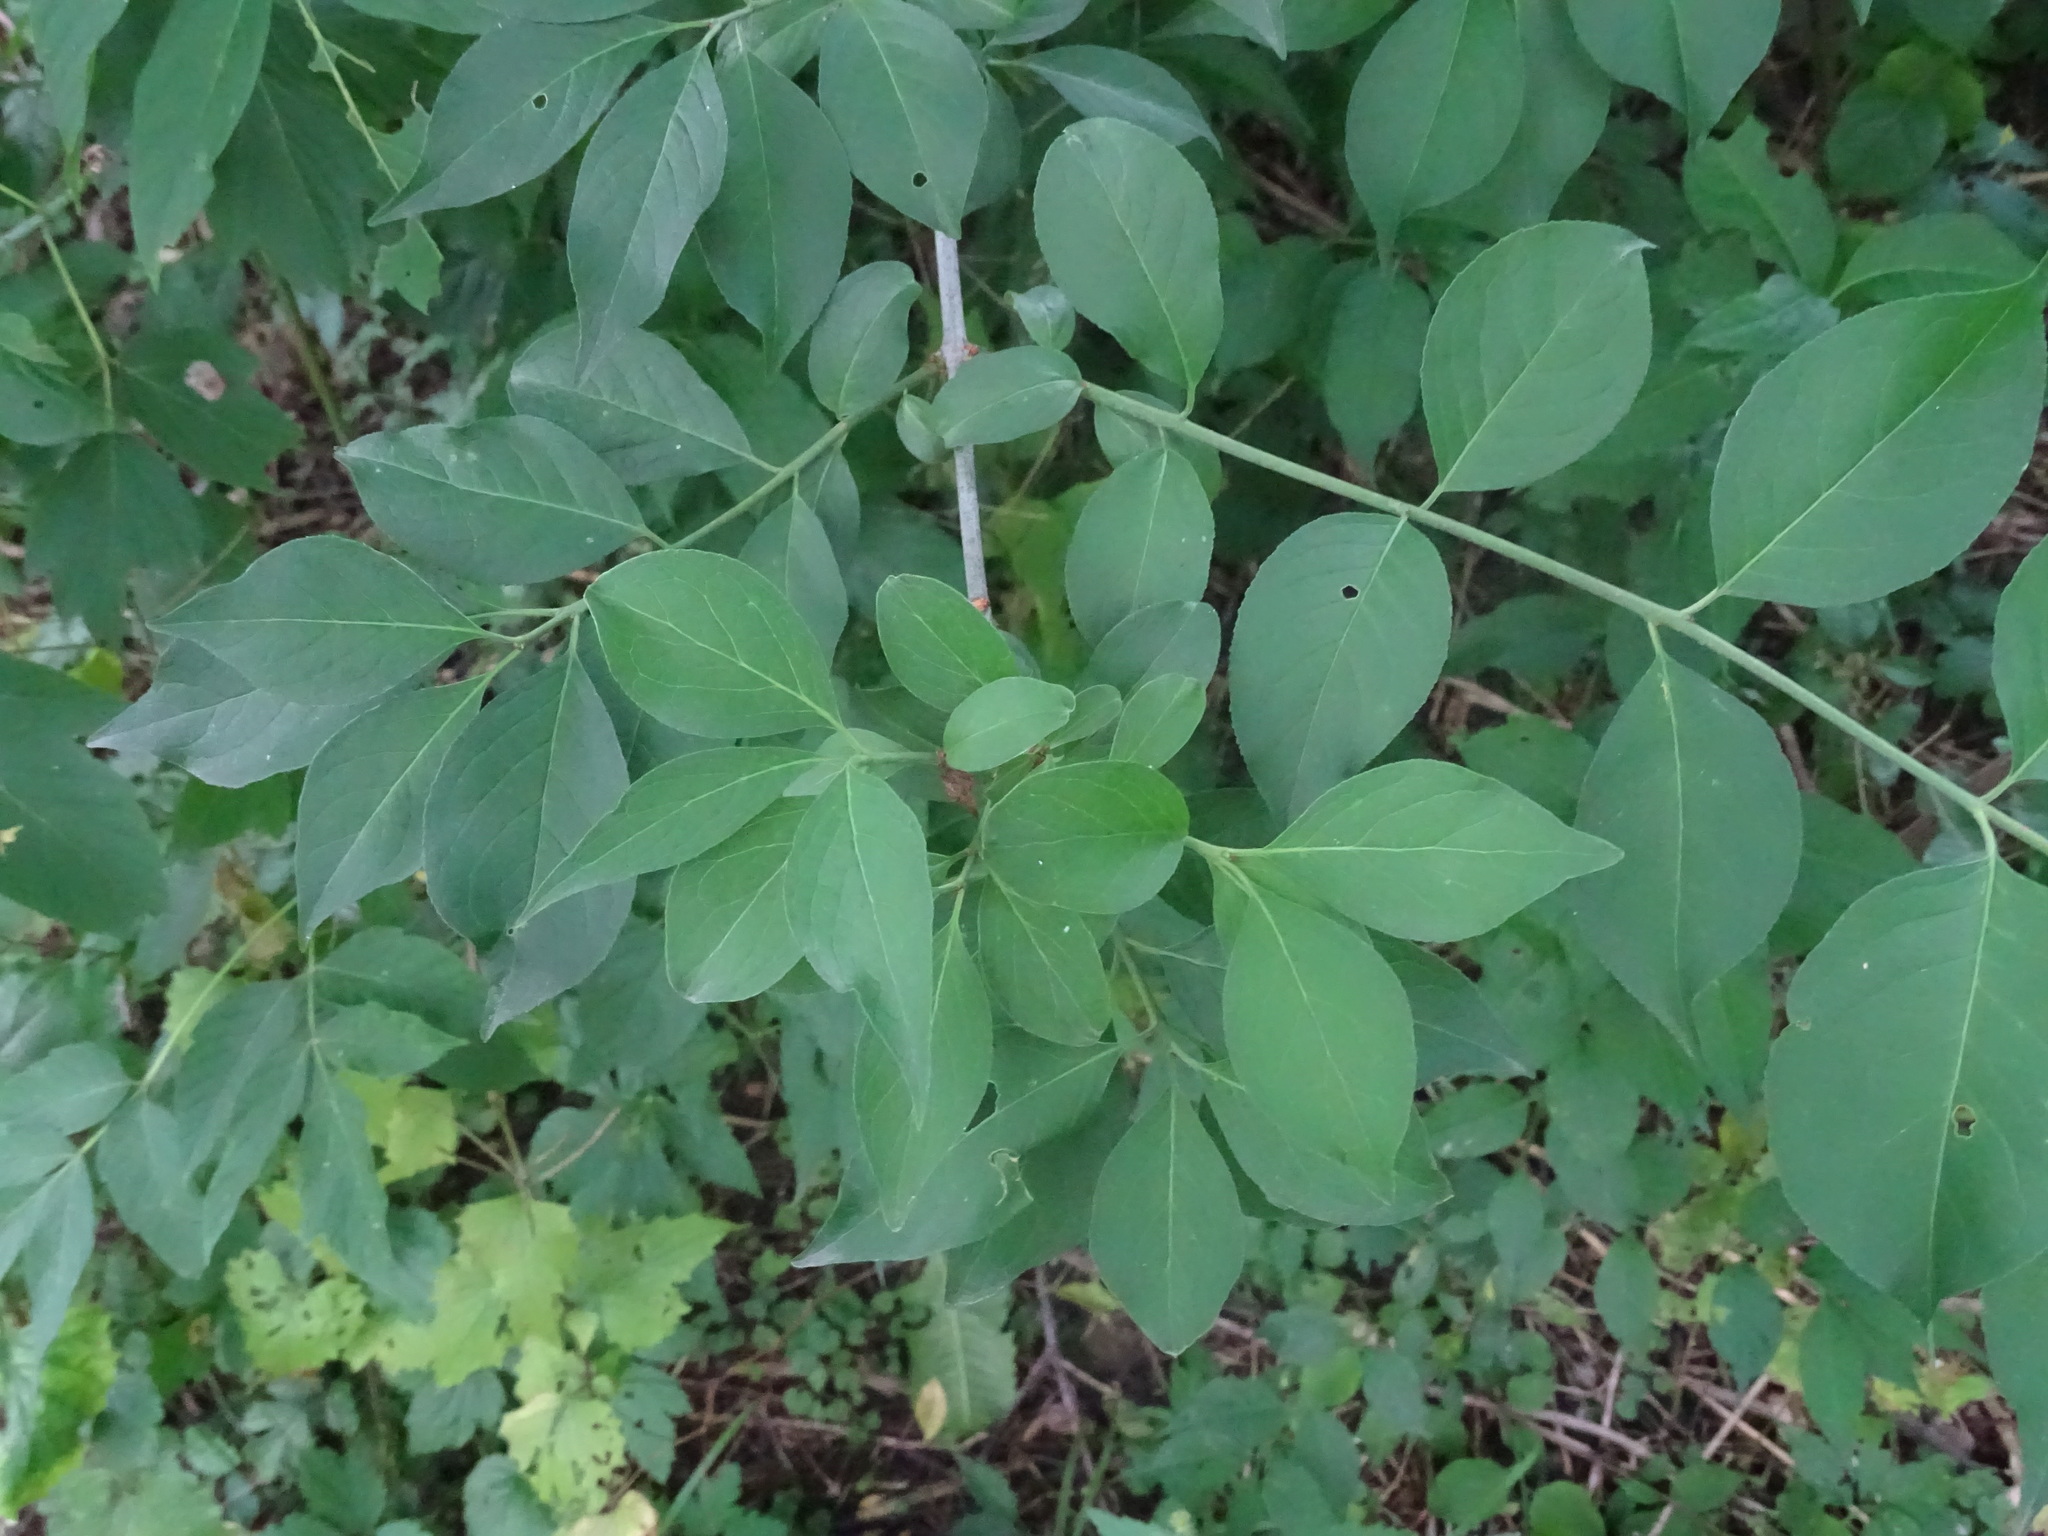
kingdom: Plantae
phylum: Tracheophyta
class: Magnoliopsida
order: Celastrales
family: Celastraceae
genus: Euonymus
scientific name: Euonymus europaeus
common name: Spindle
